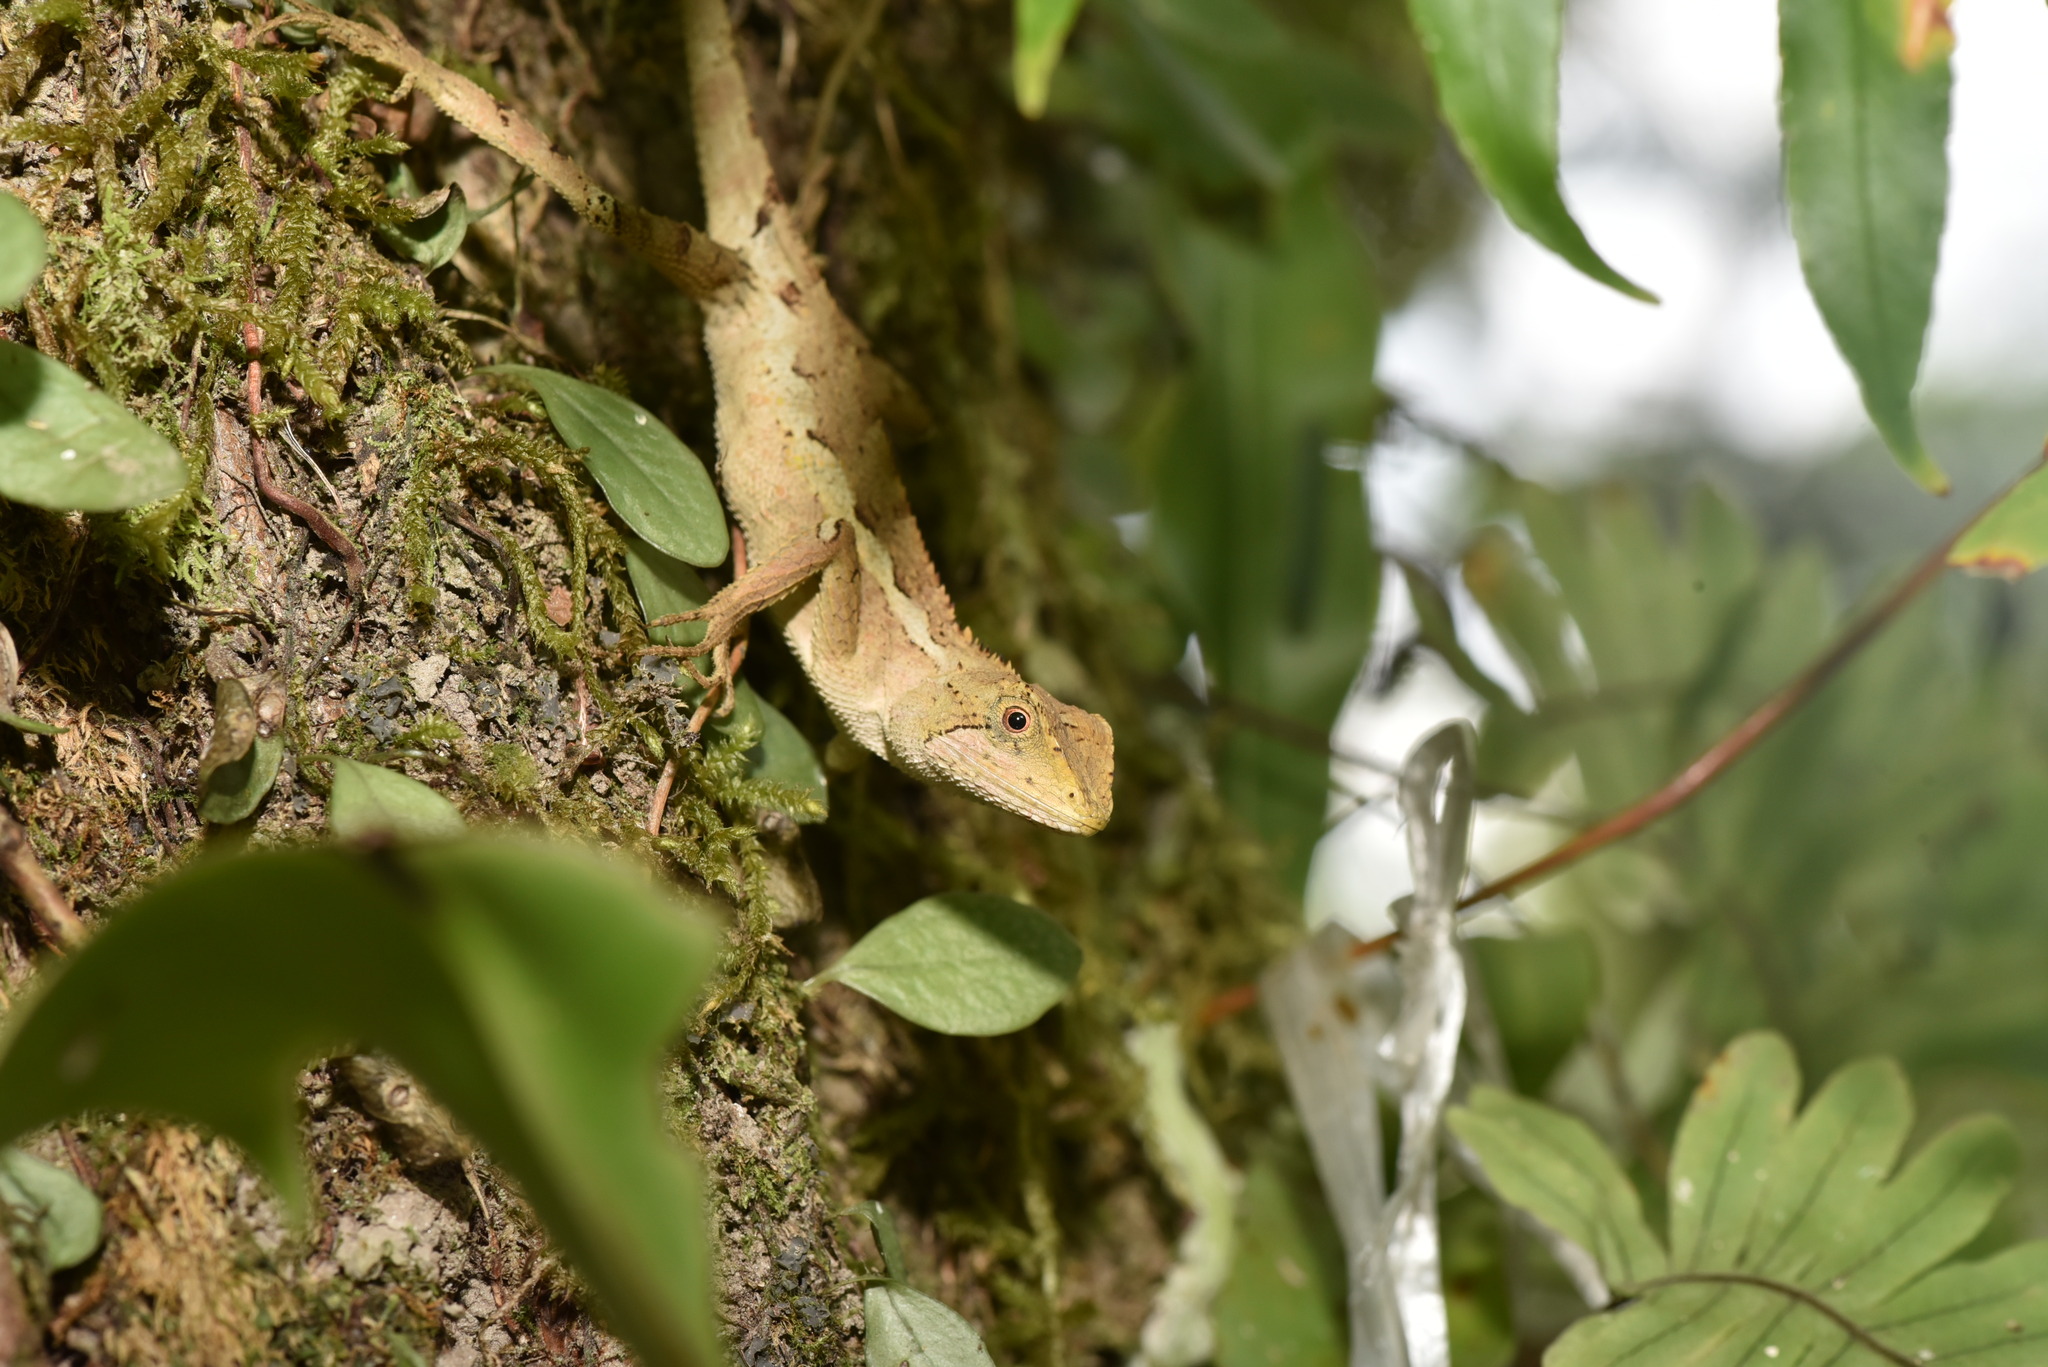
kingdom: Animalia
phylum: Chordata
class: Squamata
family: Agamidae
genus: Diploderma
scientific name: Diploderma swinhonis
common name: Taiwan japalure
